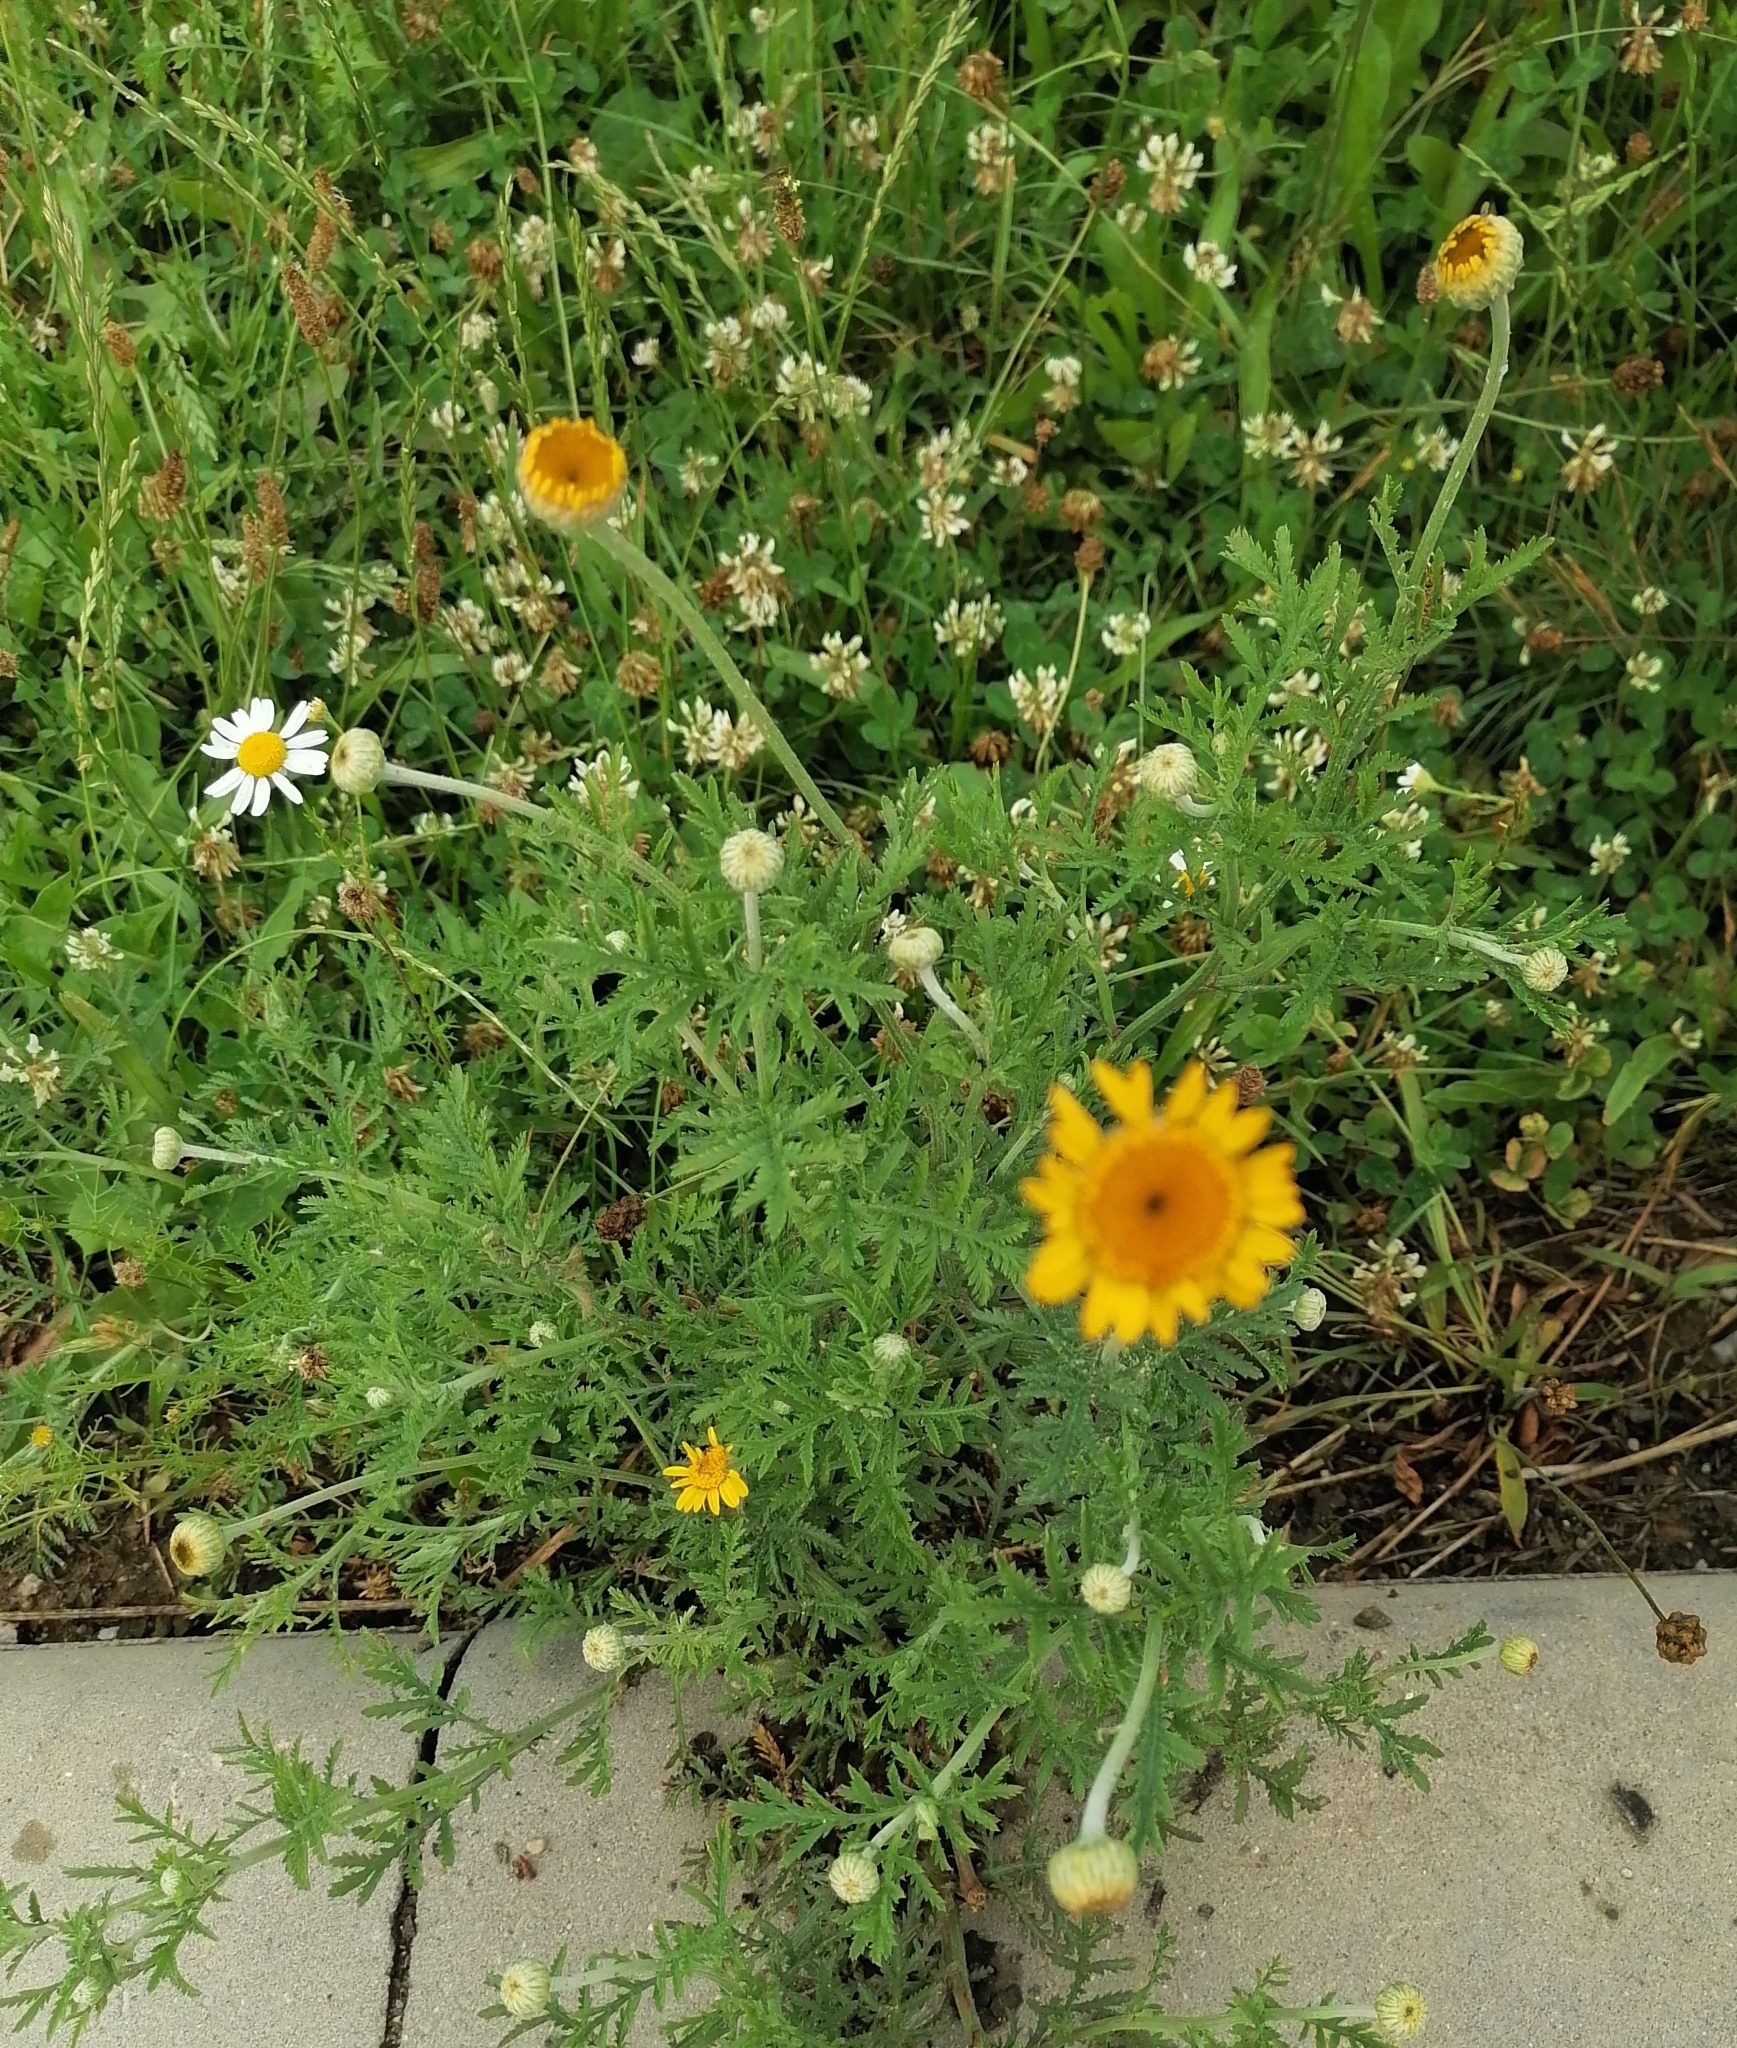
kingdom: Plantae
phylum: Tracheophyta
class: Magnoliopsida
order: Asterales
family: Asteraceae
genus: Cota
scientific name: Cota tinctoria
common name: Golden chamomile
